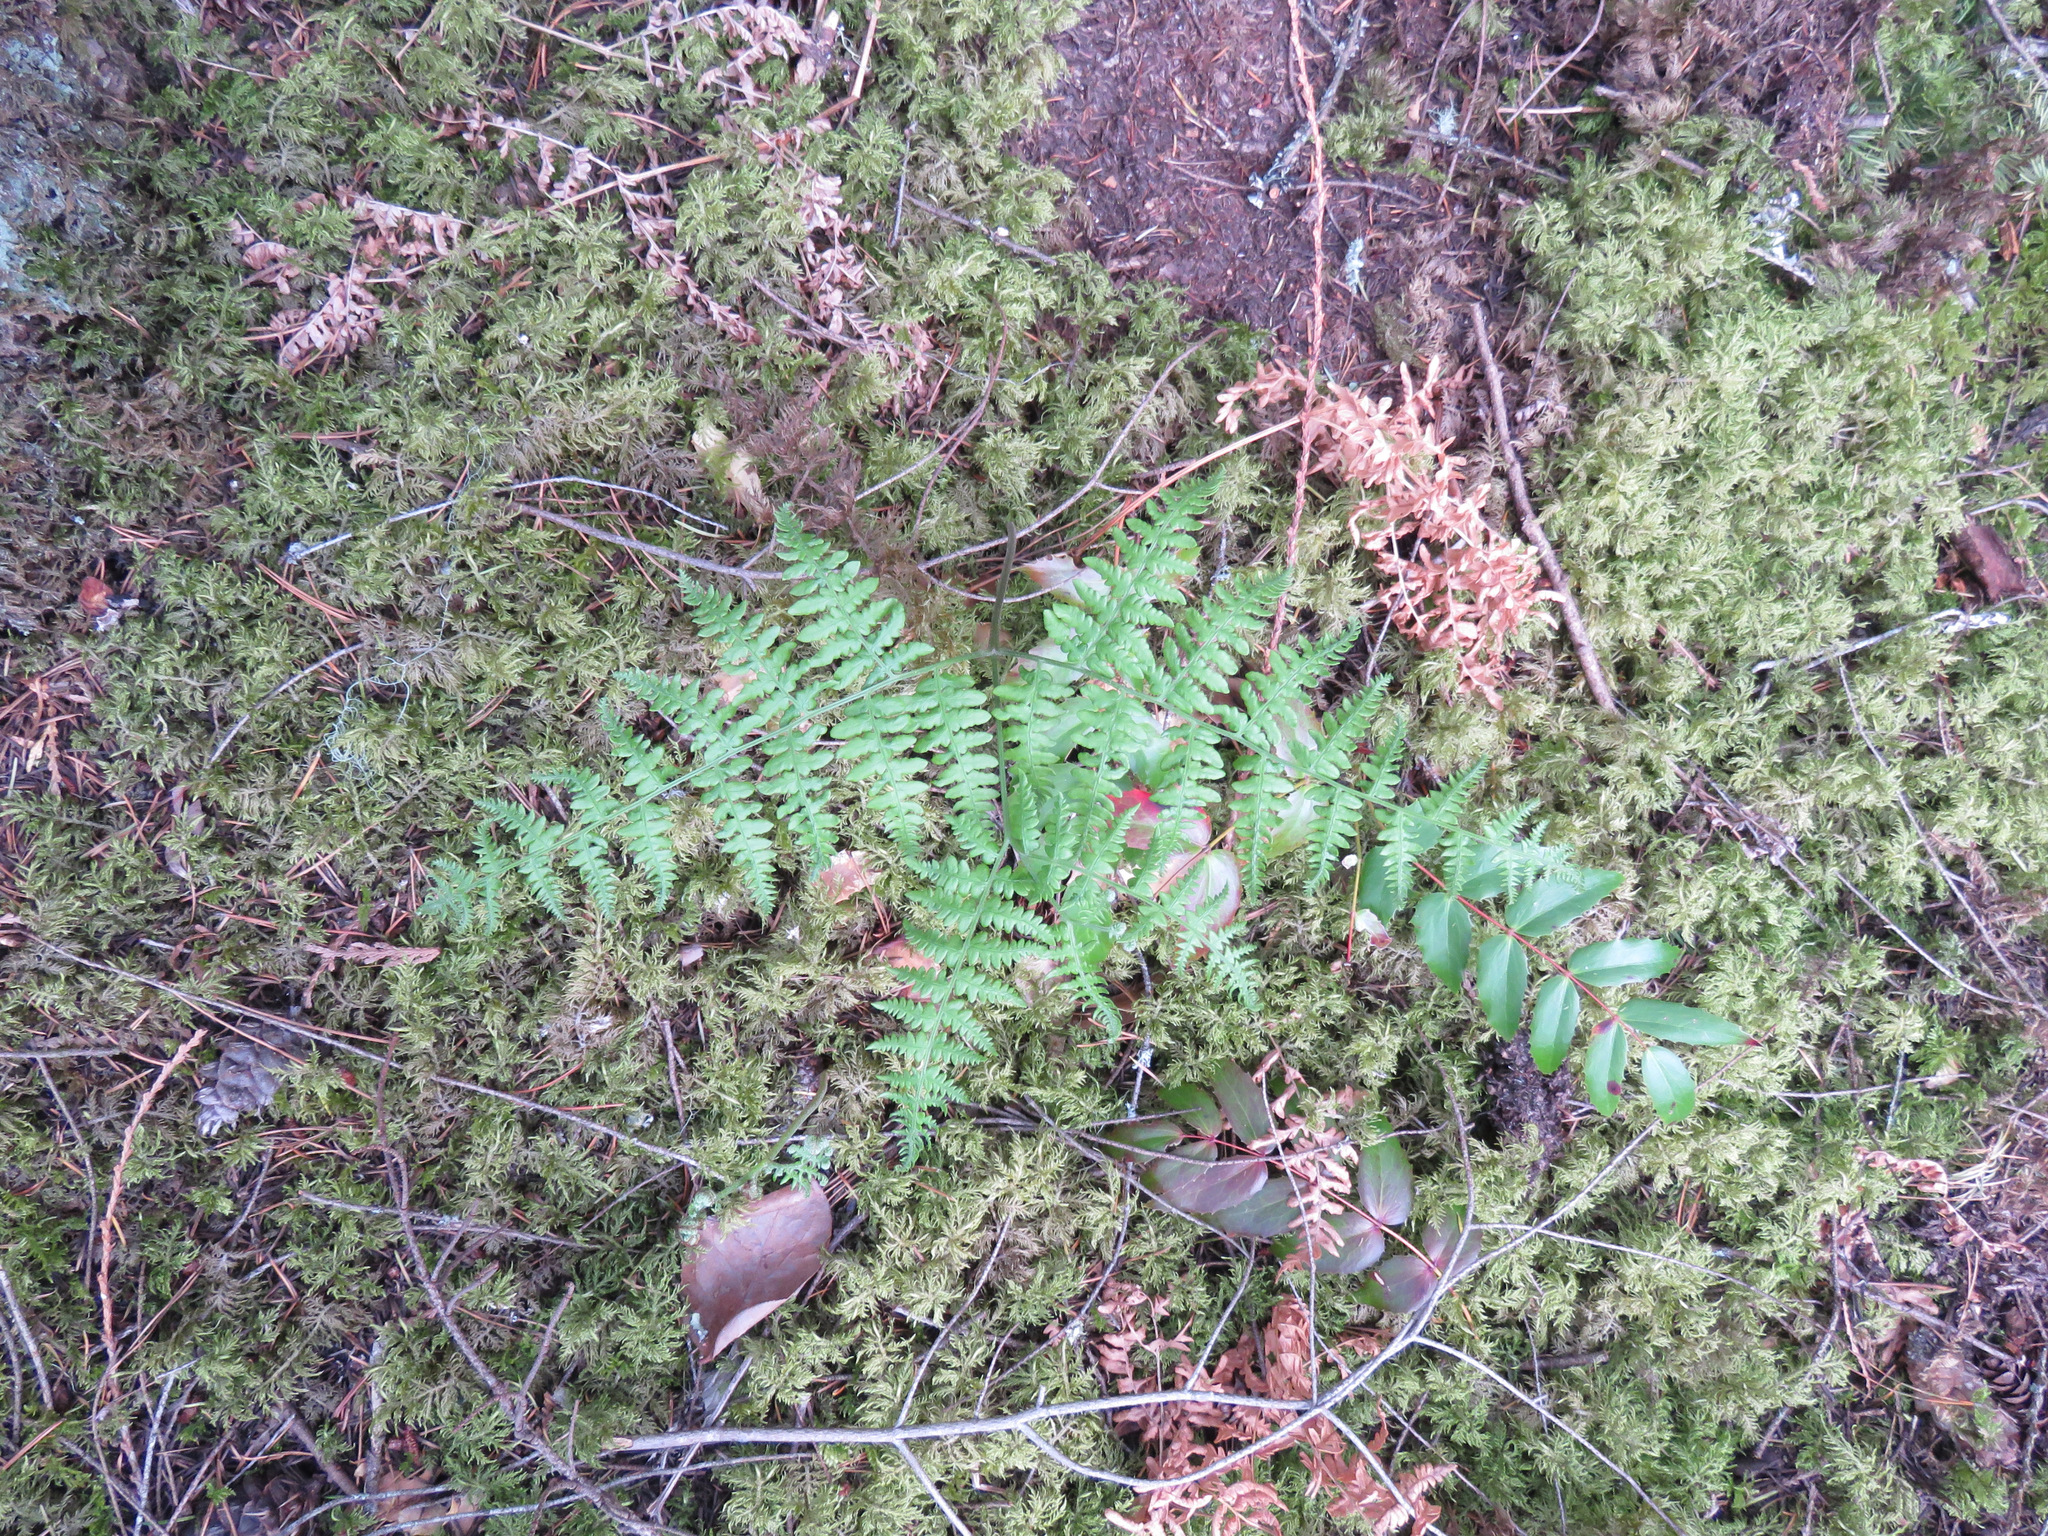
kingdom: Plantae
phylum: Tracheophyta
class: Polypodiopsida
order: Polypodiales
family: Dennstaedtiaceae
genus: Pteridium
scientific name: Pteridium aquilinum
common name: Bracken
